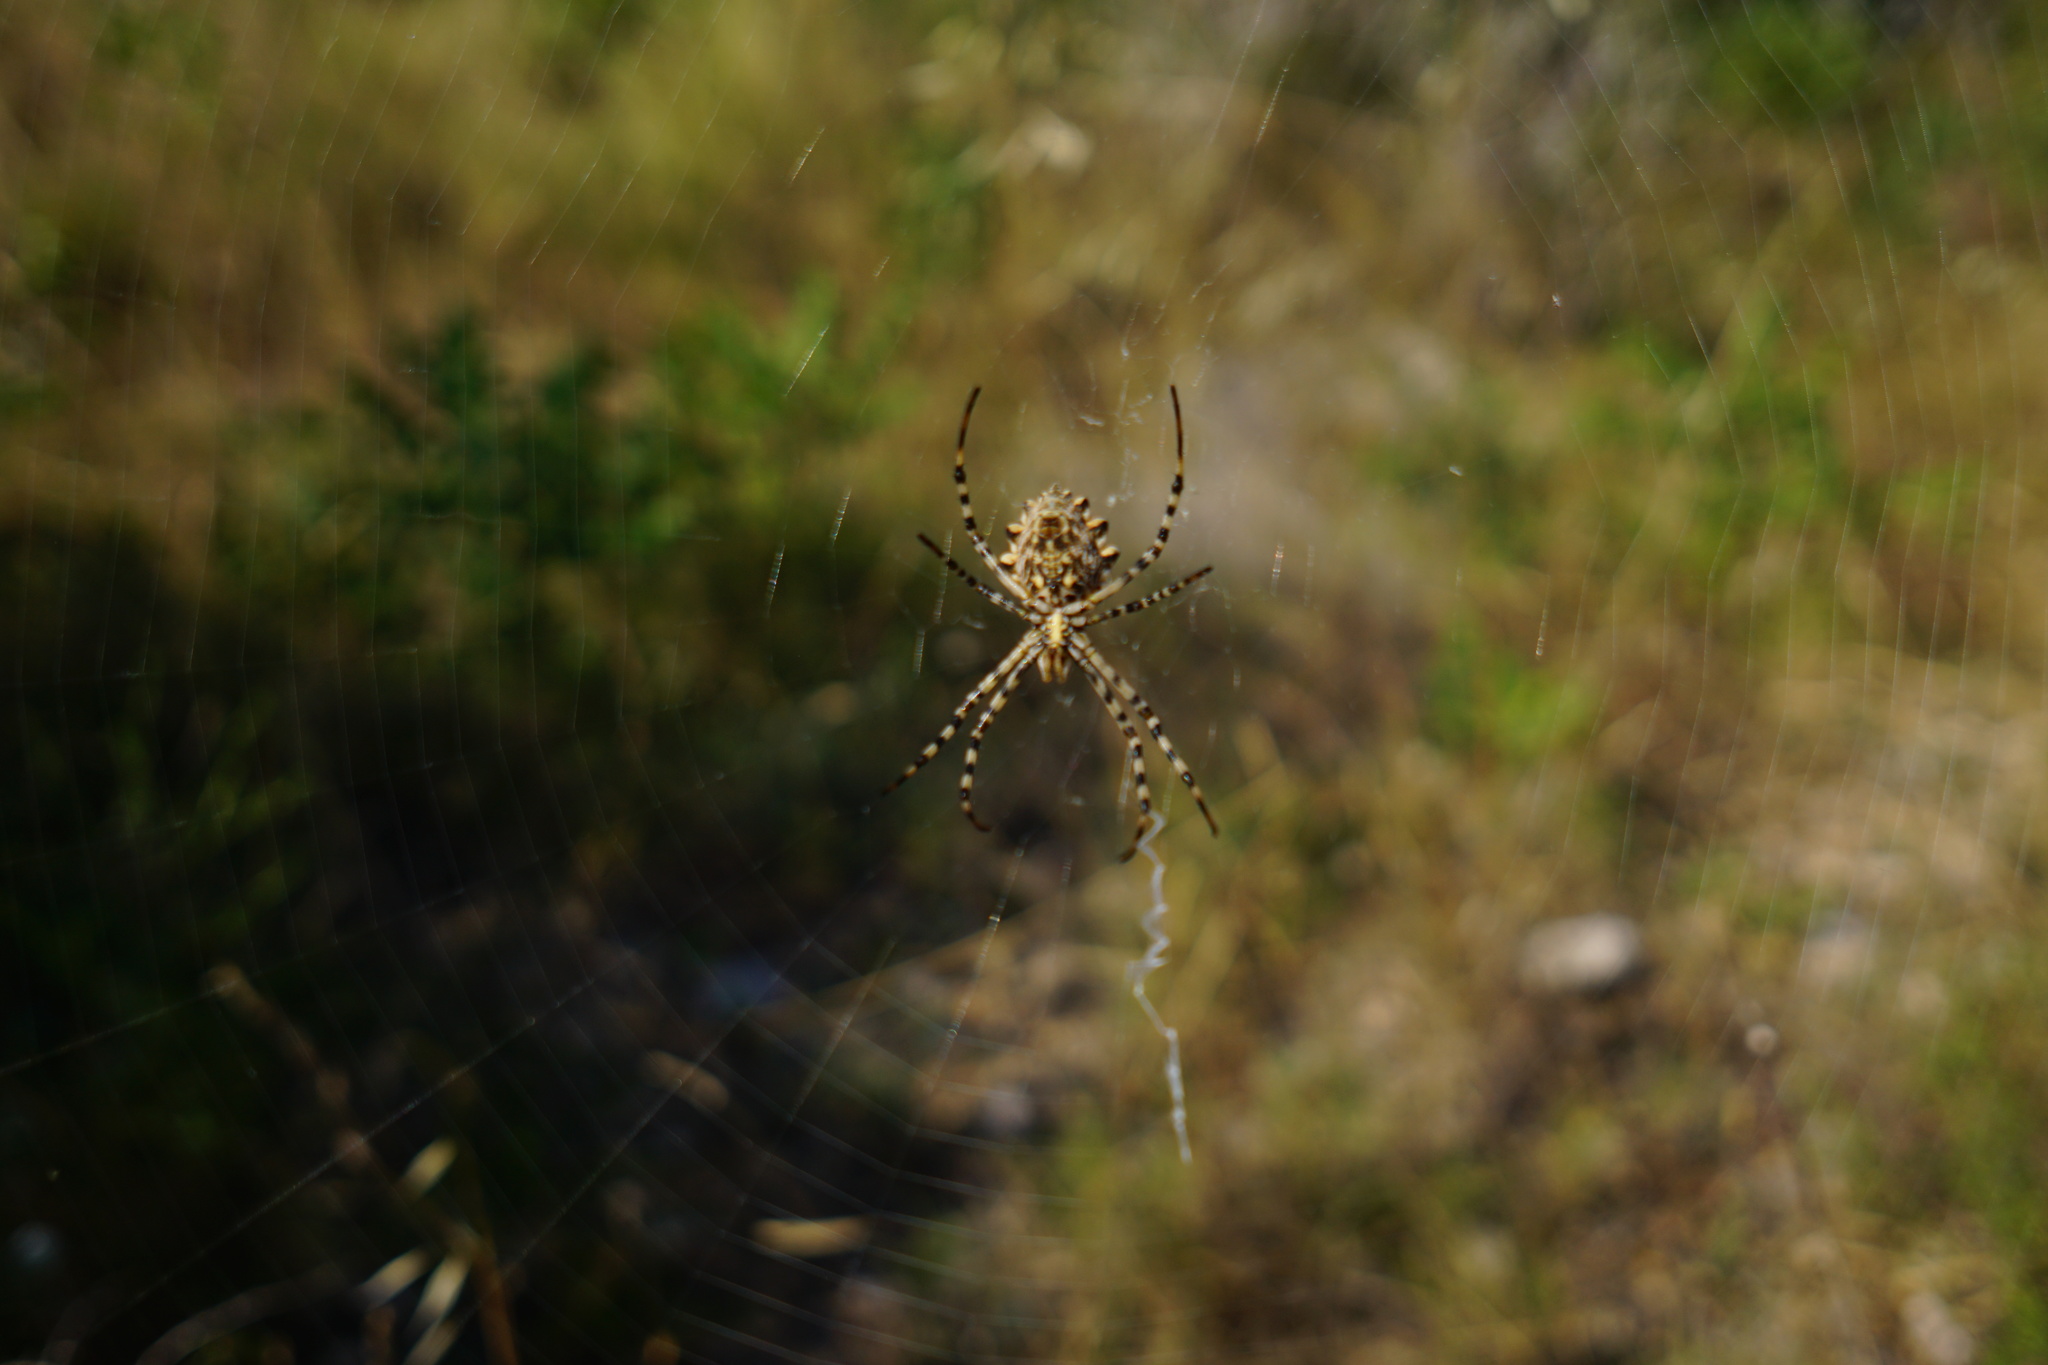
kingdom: Animalia
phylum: Arthropoda
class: Arachnida
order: Araneae
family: Araneidae
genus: Argiope
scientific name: Argiope lobata
